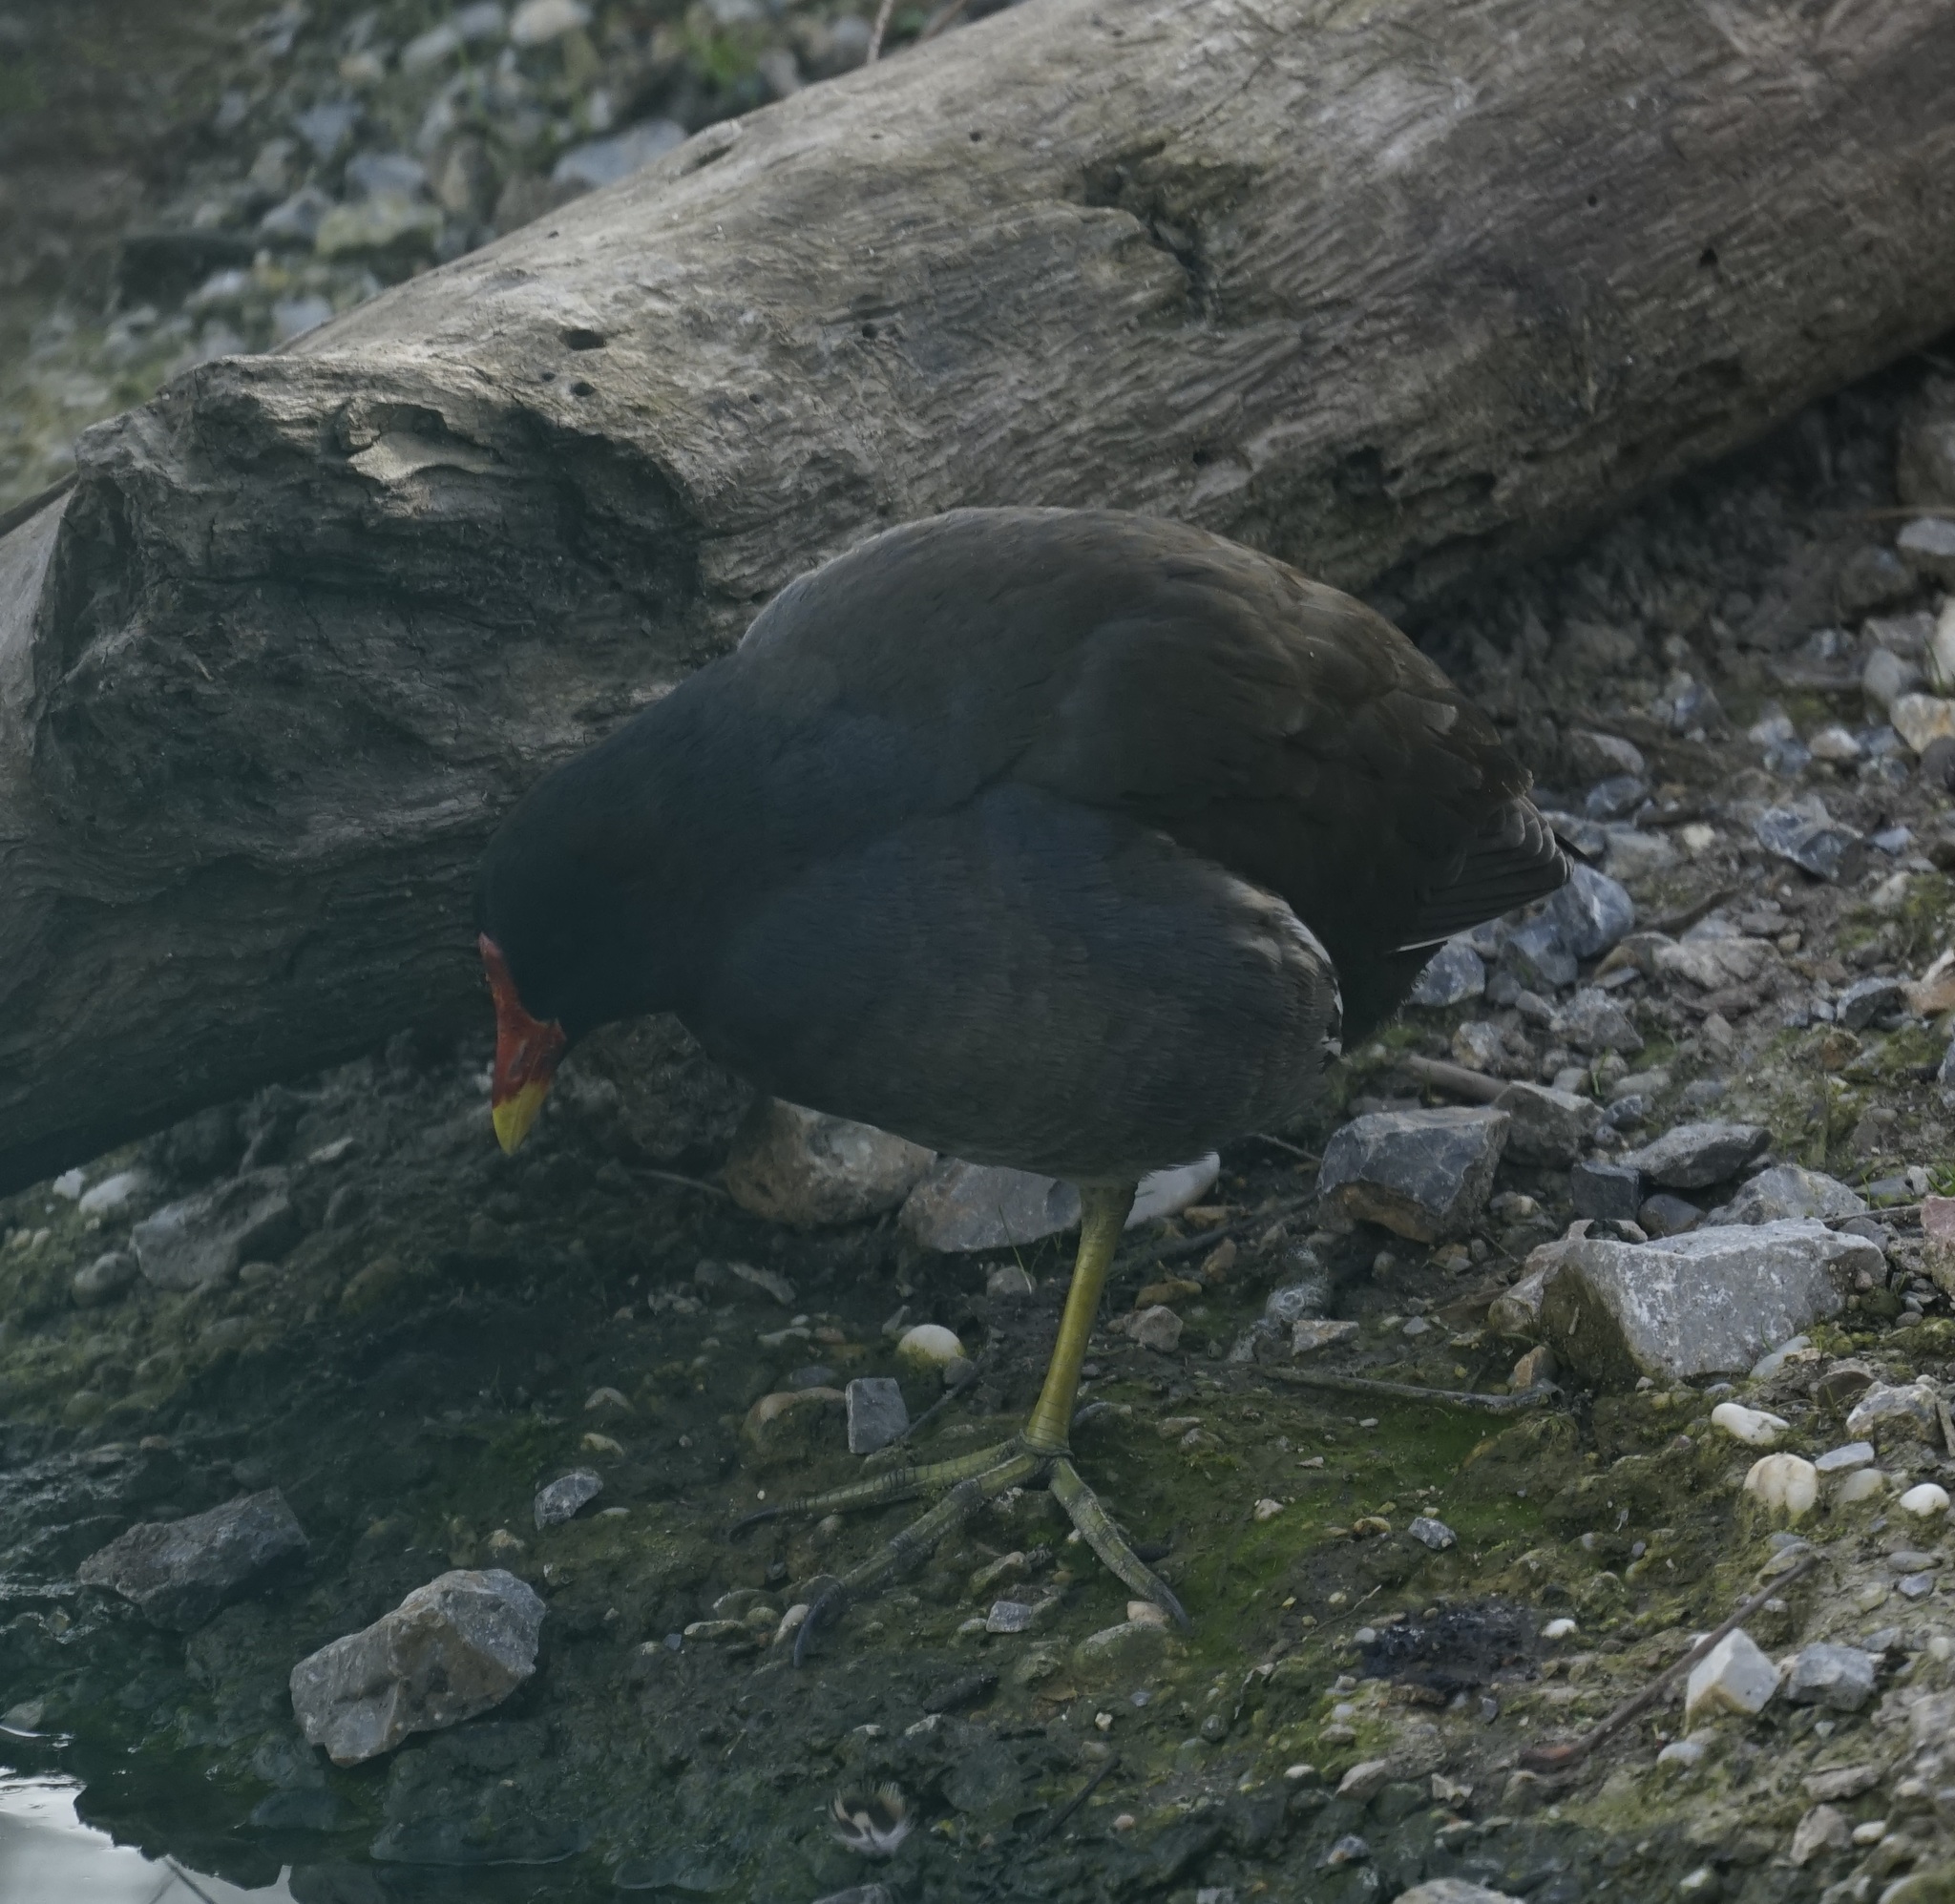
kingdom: Animalia
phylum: Chordata
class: Aves
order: Gruiformes
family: Rallidae
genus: Gallinula
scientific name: Gallinula chloropus
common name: Common moorhen
